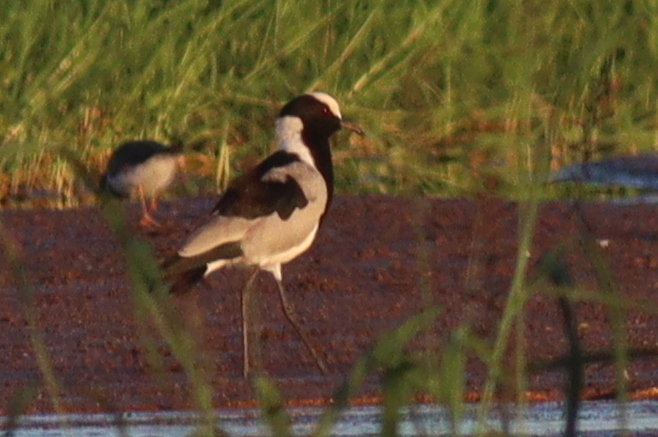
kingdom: Animalia
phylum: Chordata
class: Aves
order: Charadriiformes
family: Charadriidae
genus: Vanellus
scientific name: Vanellus armatus
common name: Blacksmith lapwing
